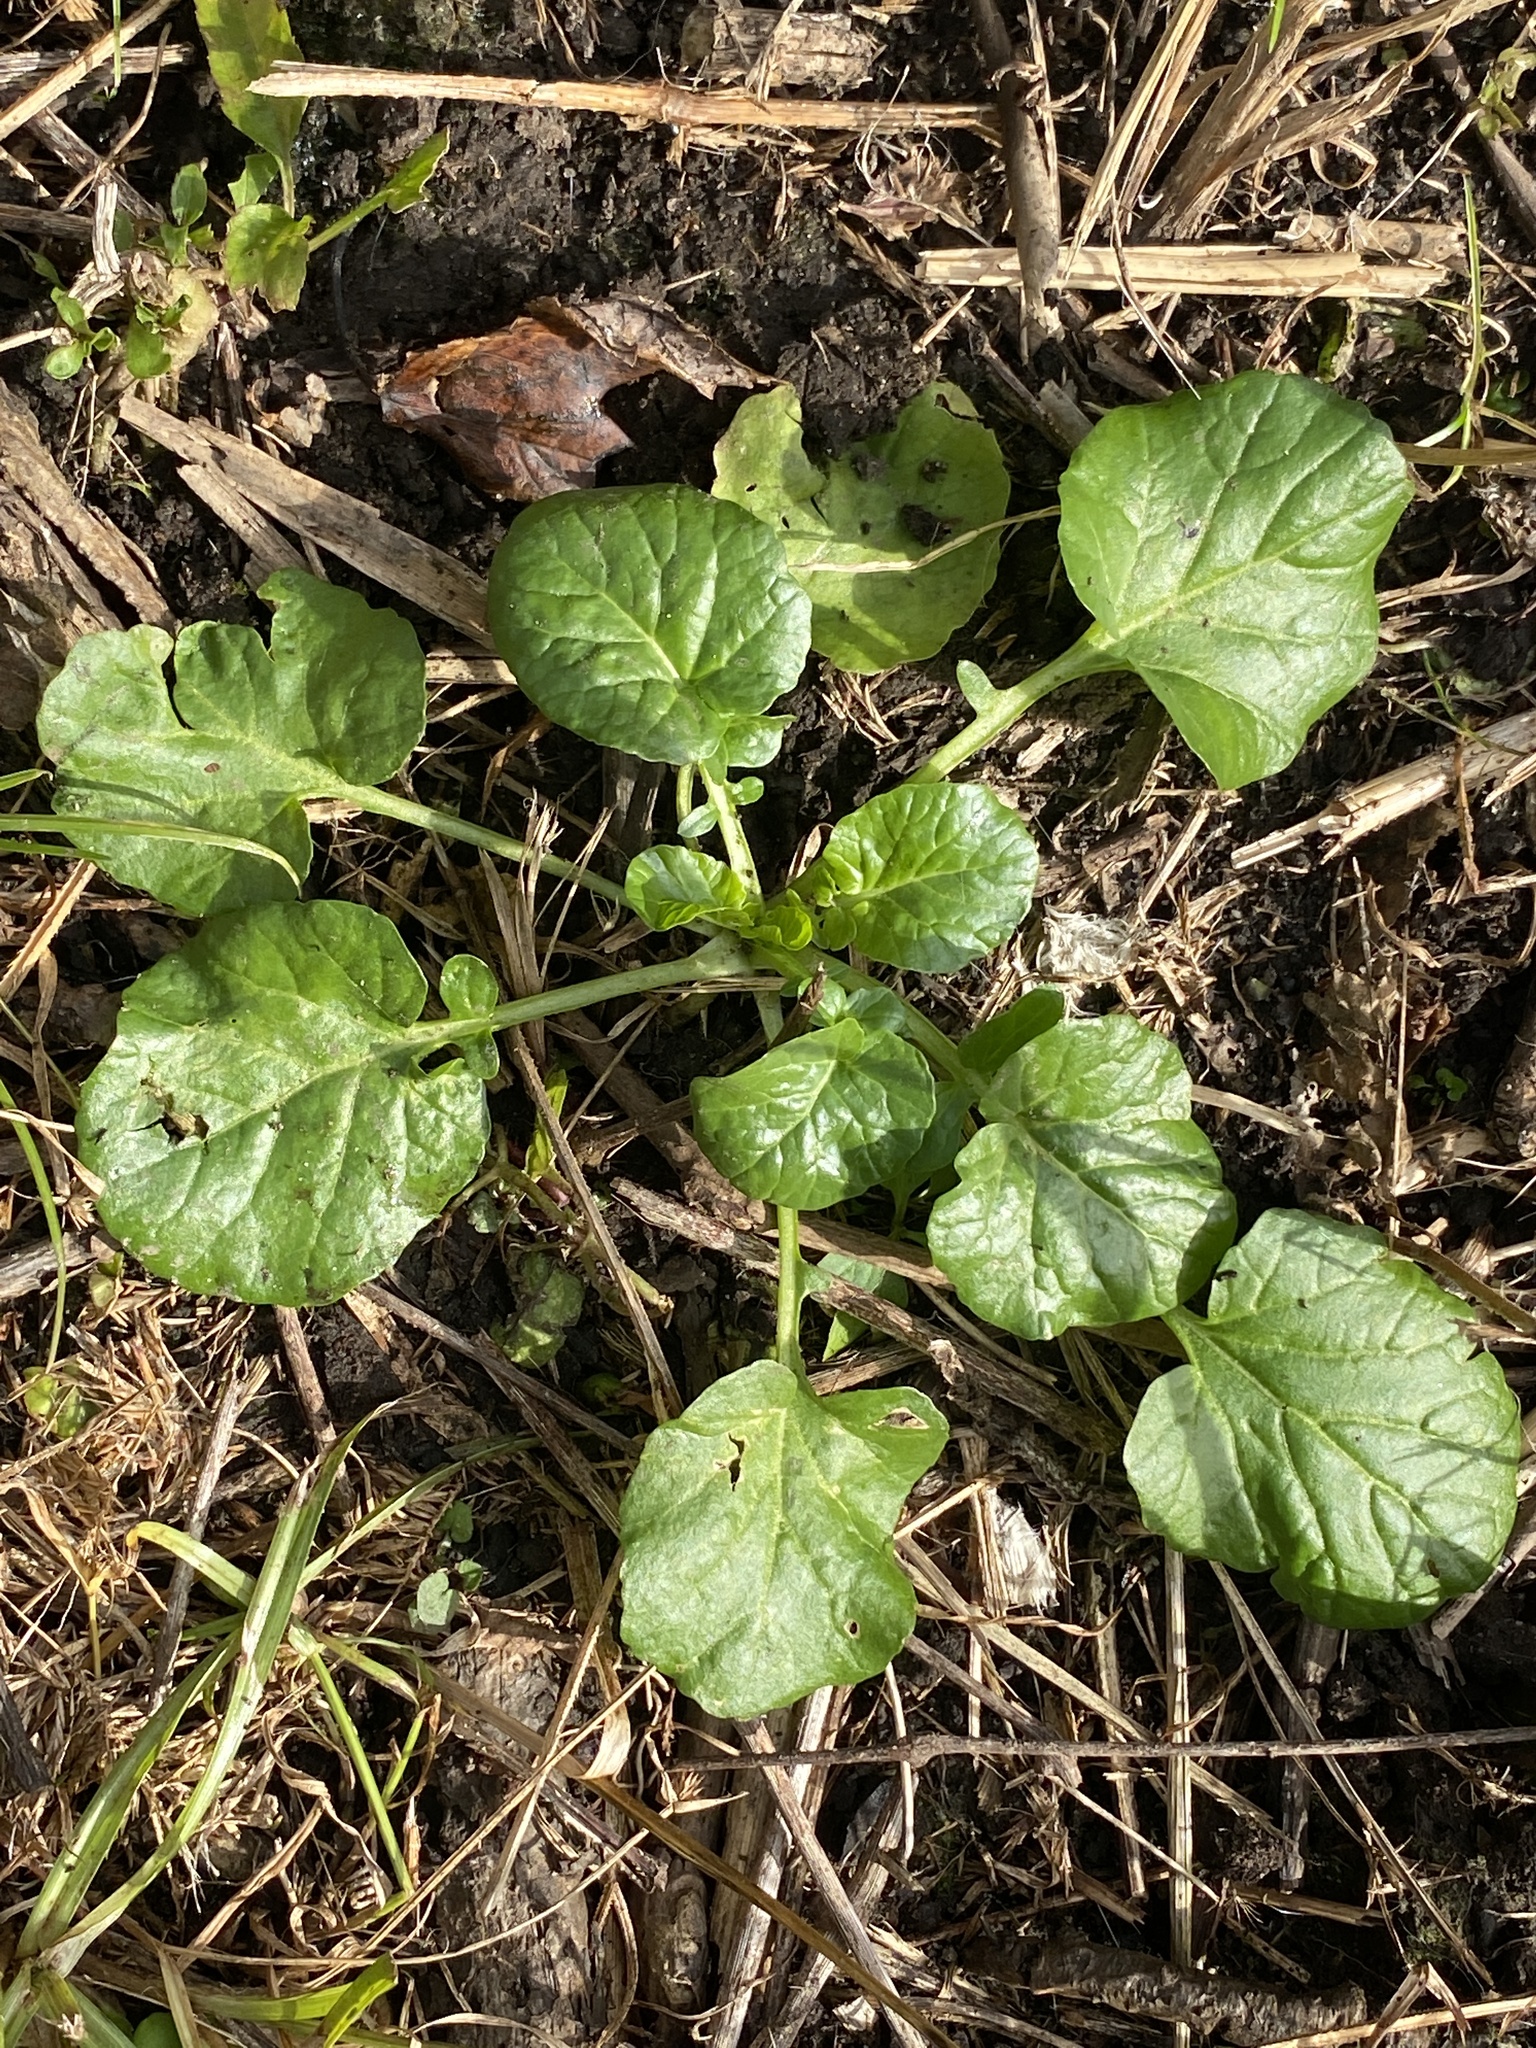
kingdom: Plantae
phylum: Tracheophyta
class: Magnoliopsida
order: Brassicales
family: Brassicaceae
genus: Barbarea
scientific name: Barbarea vulgaris
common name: Cressy-greens
